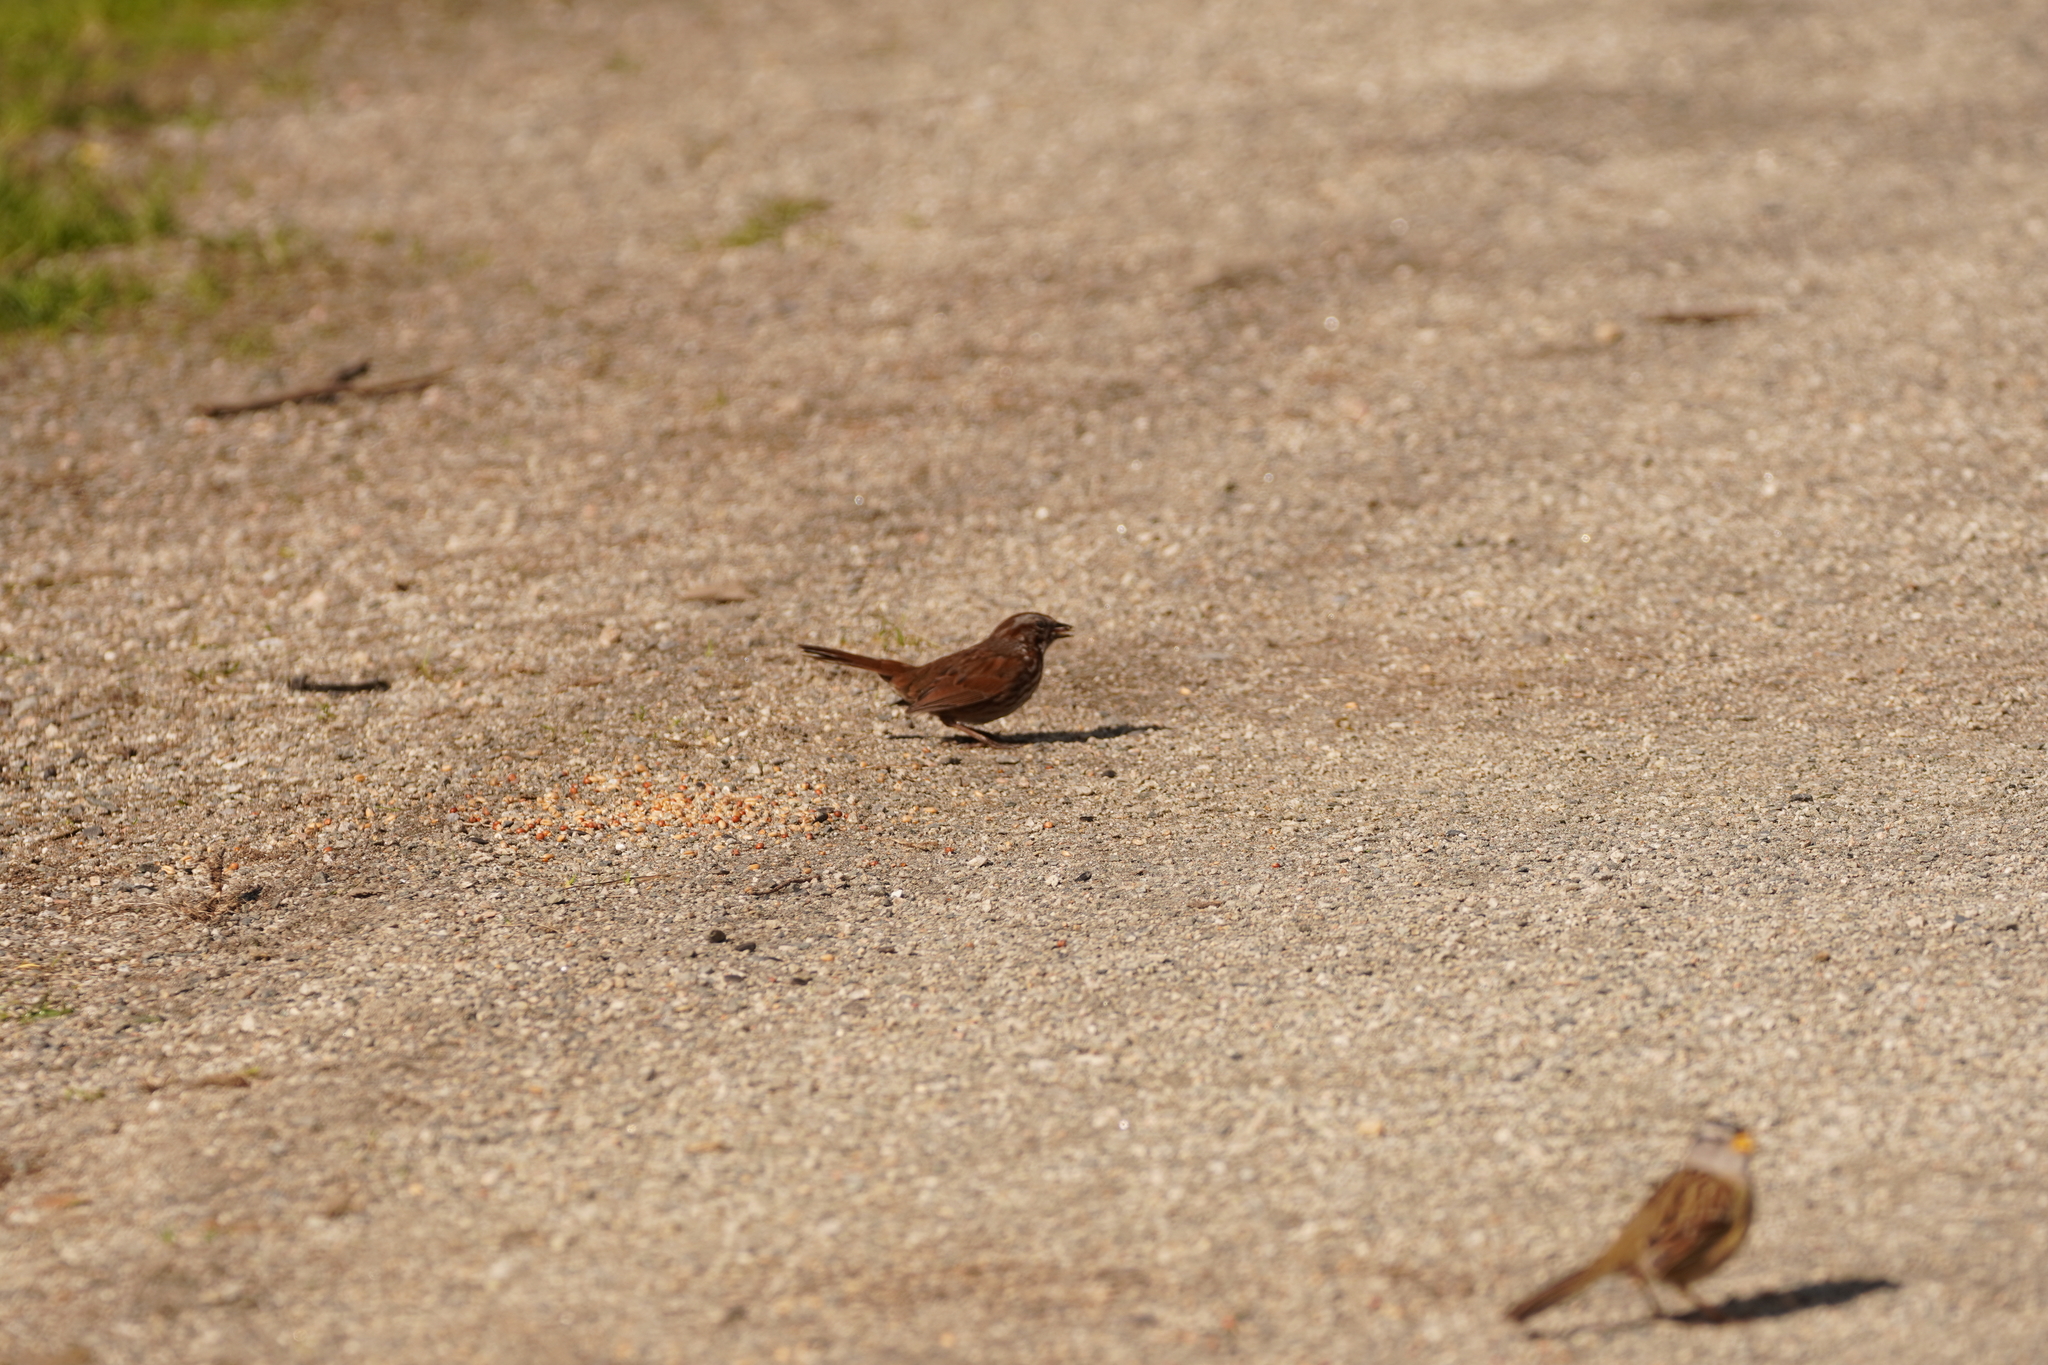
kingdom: Animalia
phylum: Chordata
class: Aves
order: Passeriformes
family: Passerellidae
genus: Melospiza
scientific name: Melospiza melodia
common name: Song sparrow
